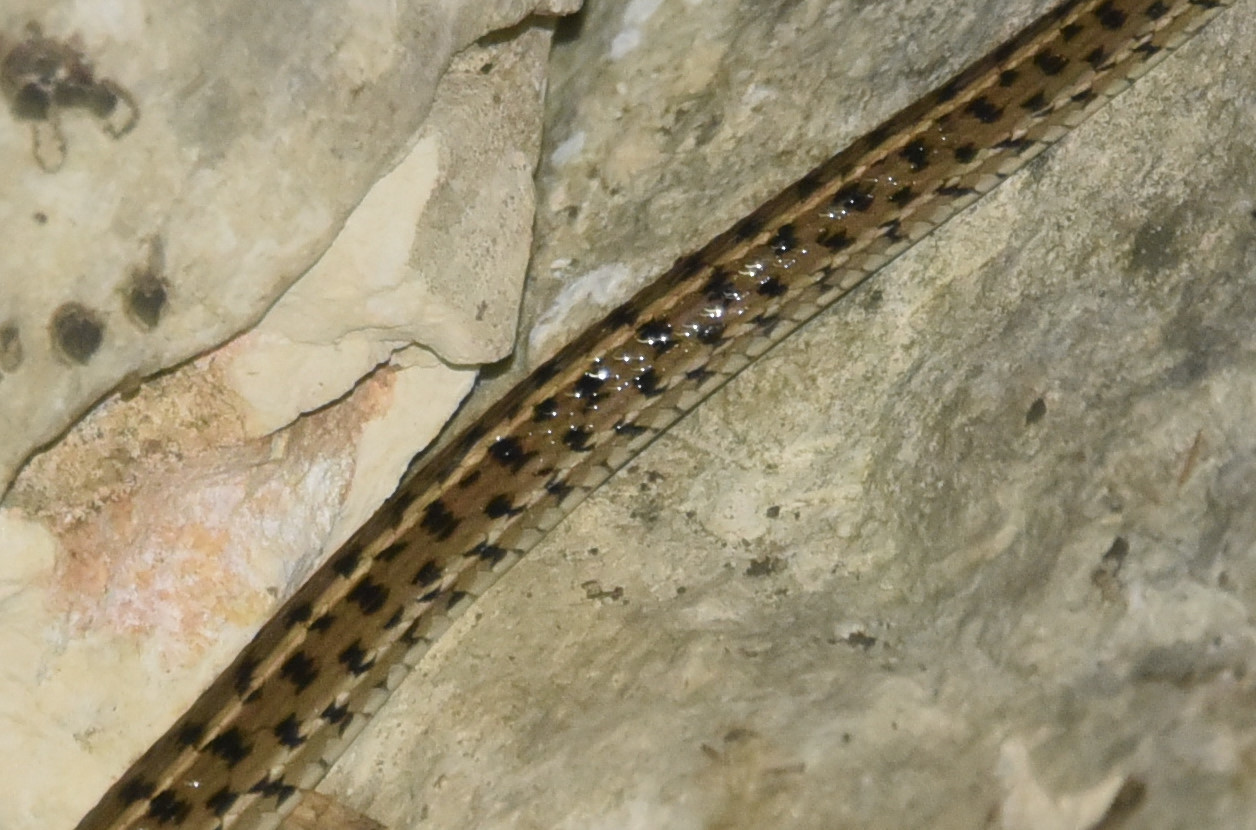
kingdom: Animalia
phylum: Chordata
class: Squamata
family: Colubridae
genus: Thamnophis
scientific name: Thamnophis marcianus
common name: Checkered garter snake
